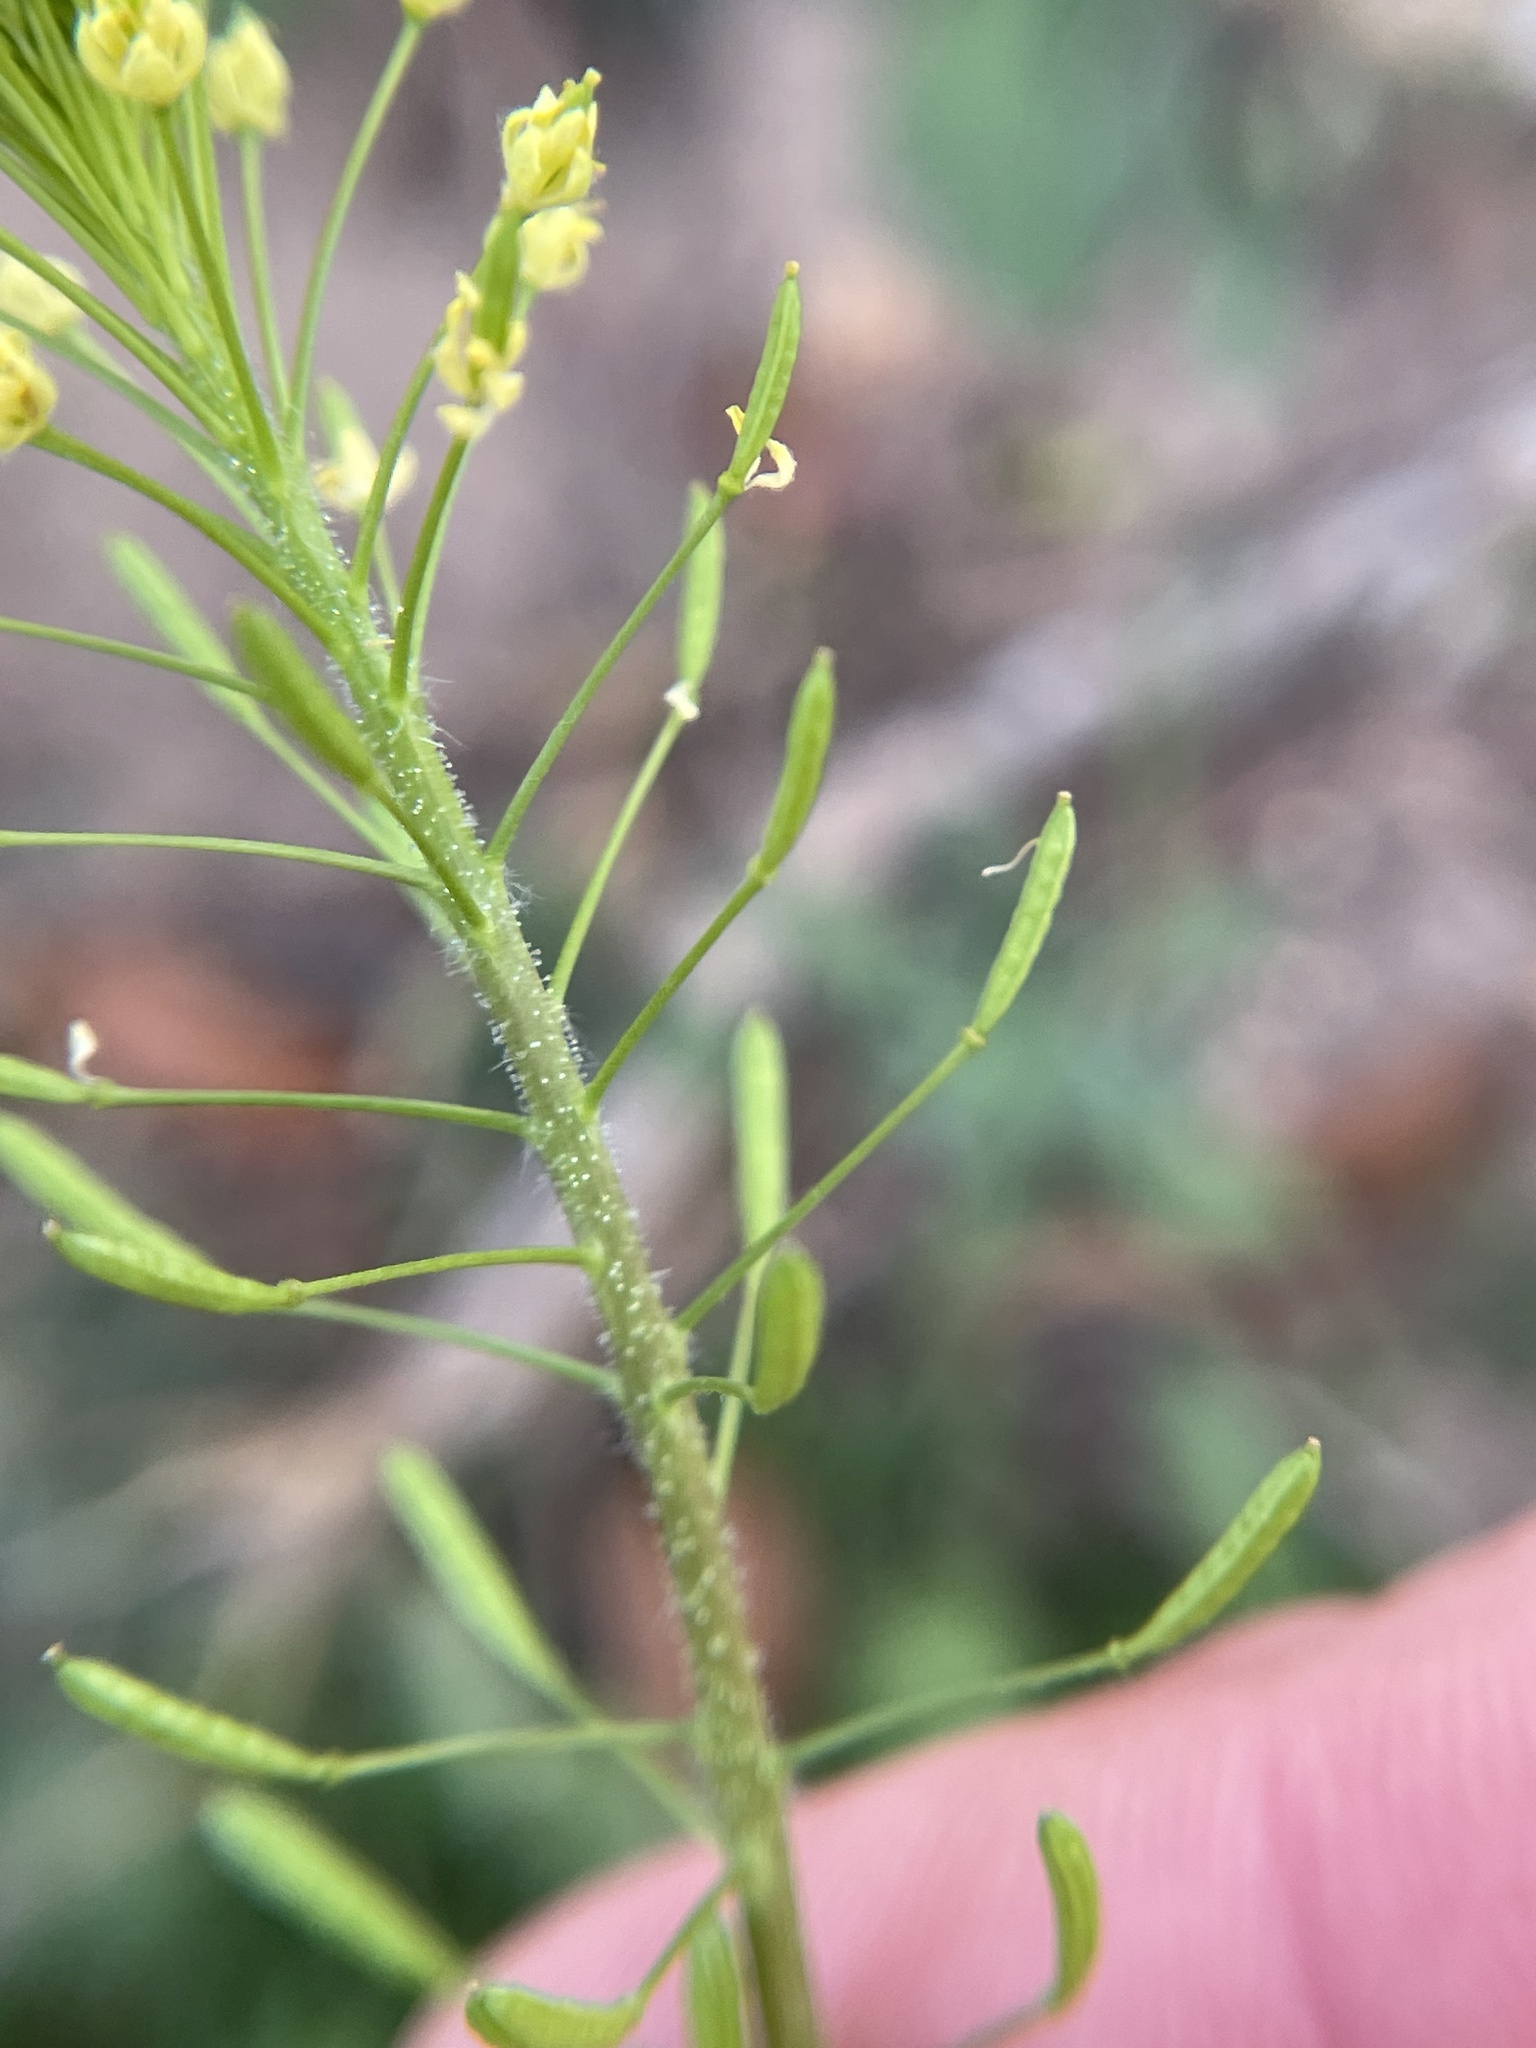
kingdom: Plantae
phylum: Tracheophyta
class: Magnoliopsida
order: Brassicales
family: Brassicaceae
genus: Descurainia
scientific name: Descurainia pinnata
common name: Western tansy mustard
